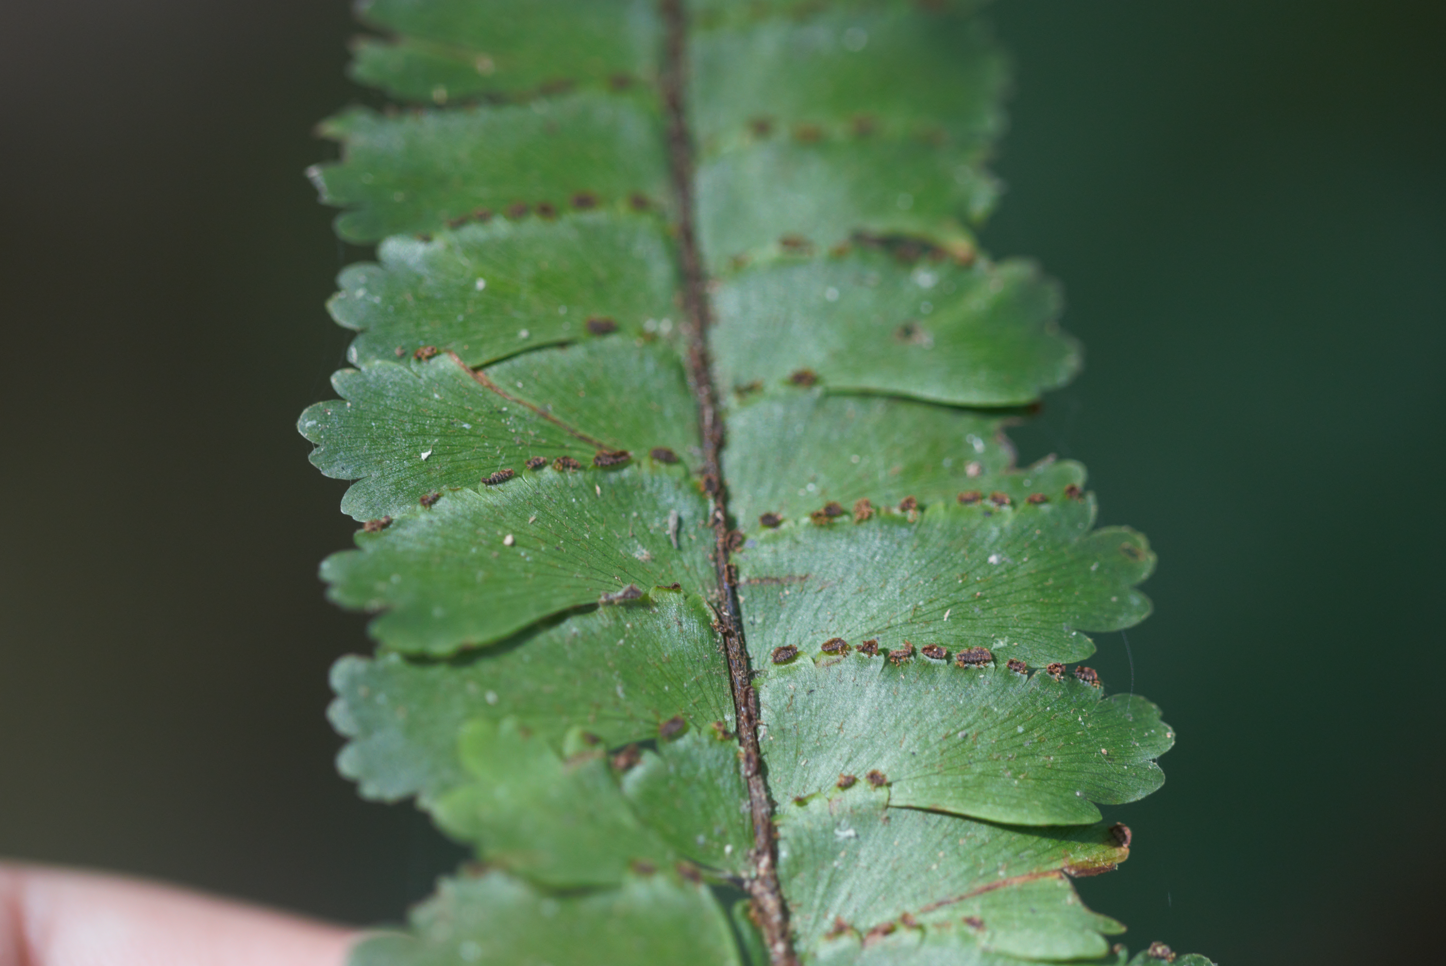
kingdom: Plantae
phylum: Tracheophyta
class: Polypodiopsida
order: Polypodiales
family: Pteridaceae
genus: Adiantum
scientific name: Adiantum cajennense
